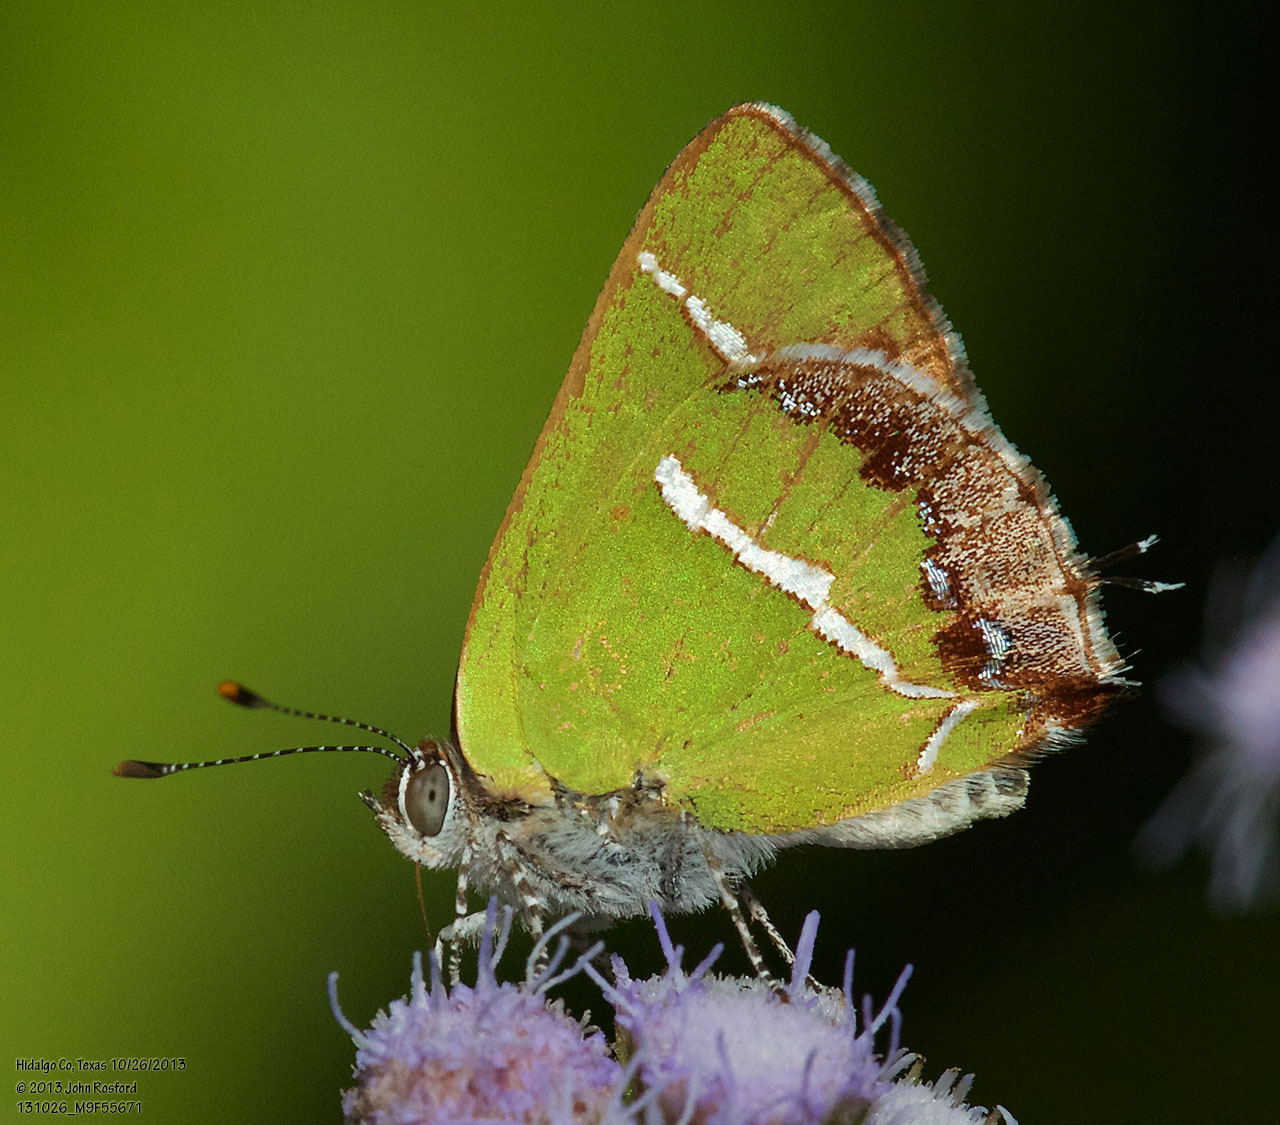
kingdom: Animalia
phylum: Arthropoda
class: Insecta
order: Lepidoptera
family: Lycaenidae
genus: Chlorostrymon
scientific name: Chlorostrymon simaethis
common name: Silver-banded hairstreak
